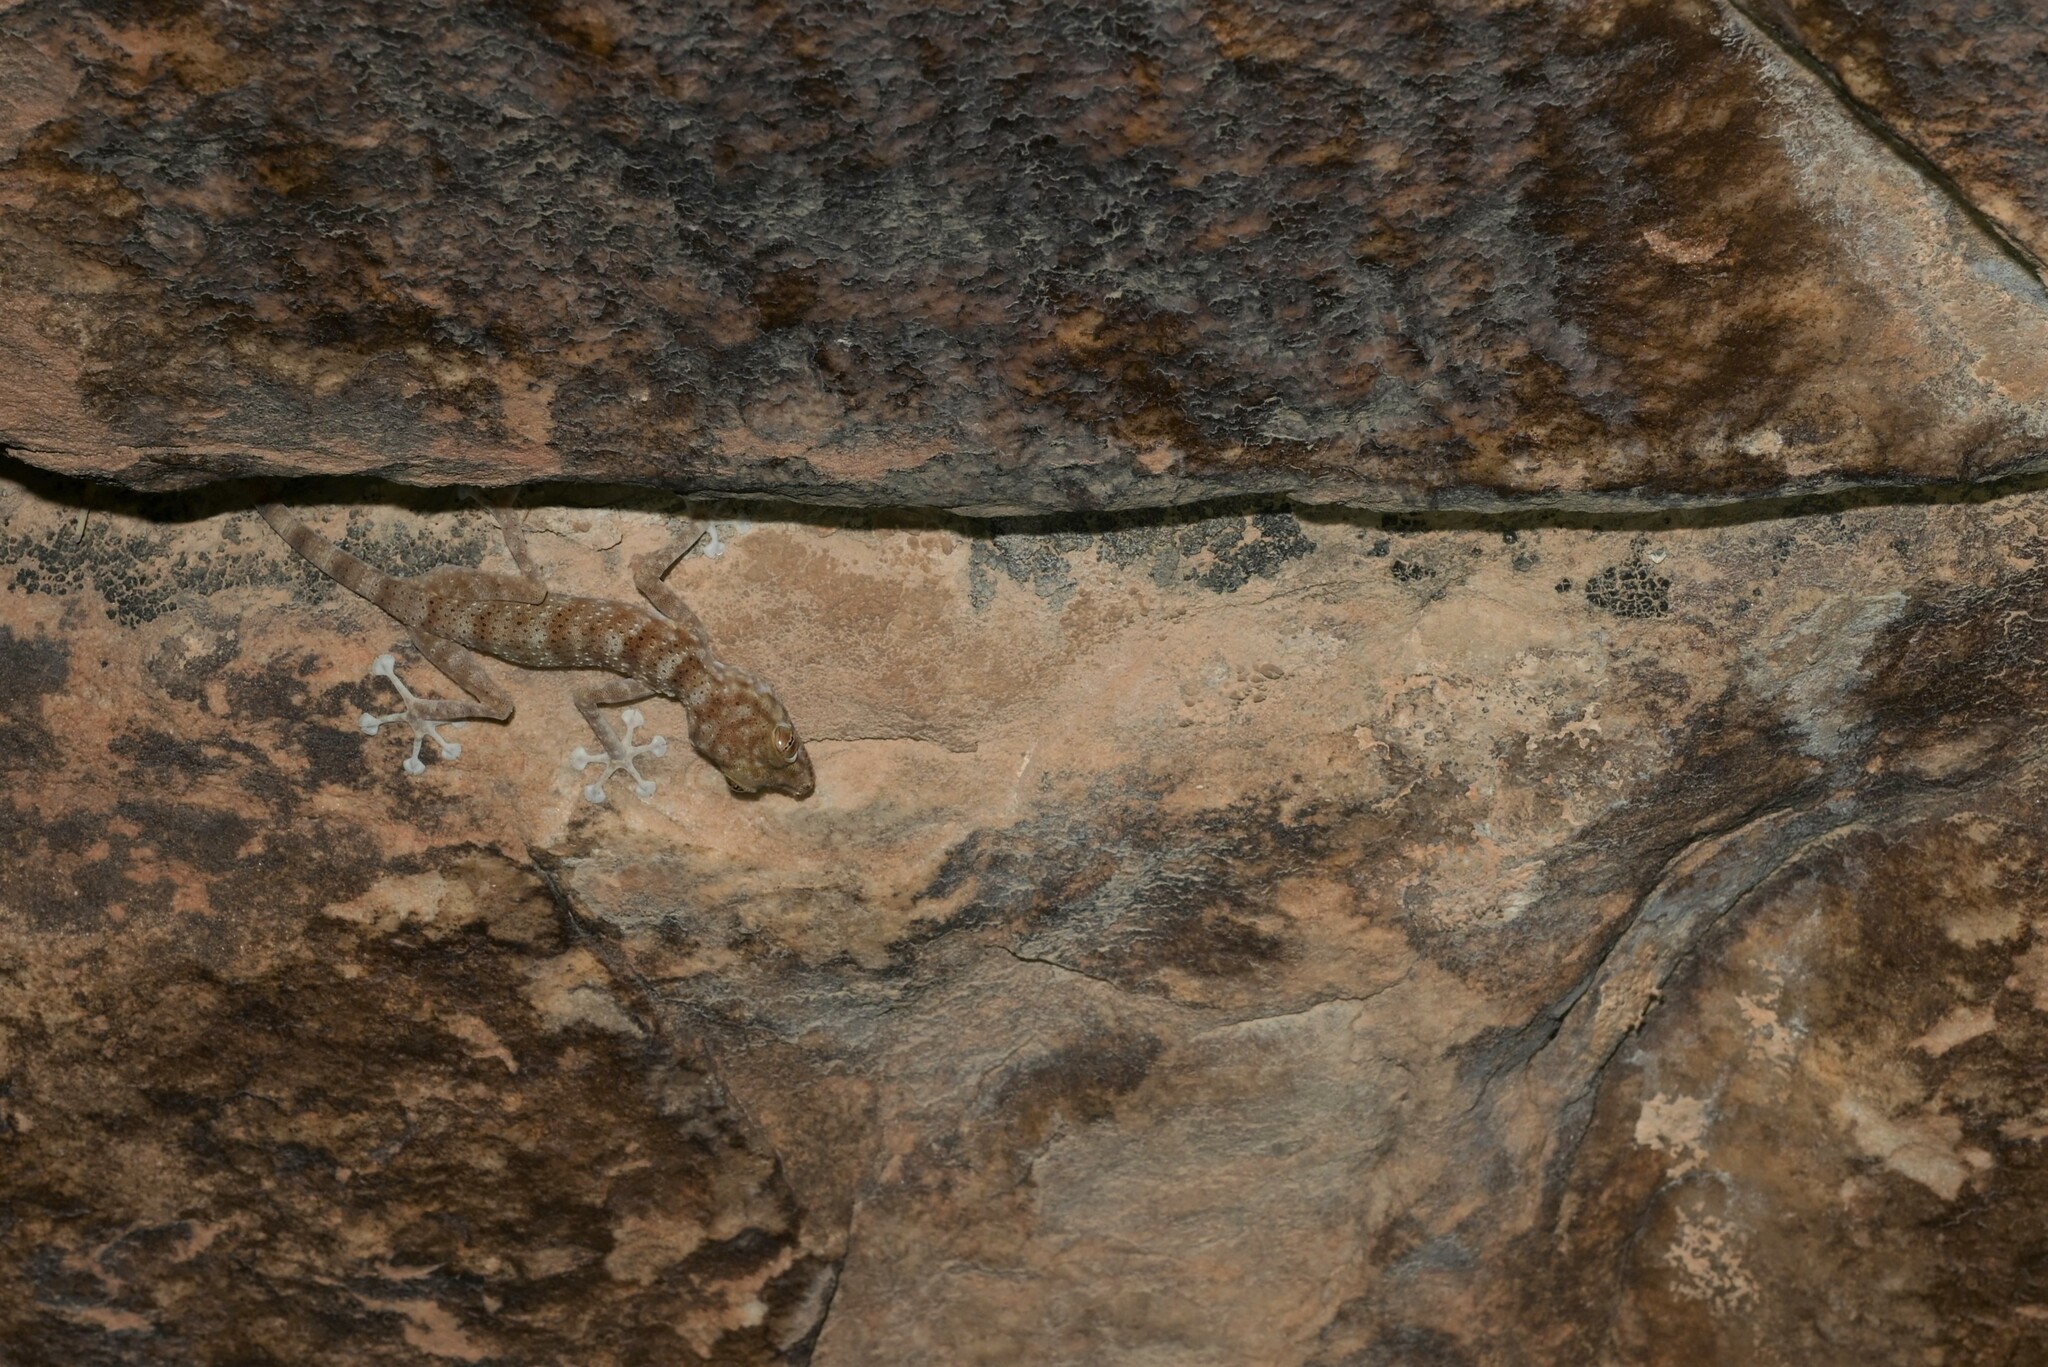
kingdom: Animalia
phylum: Chordata
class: Squamata
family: Phyllodactylidae
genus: Ptyodactylus
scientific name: Ptyodactylus hasselquistii
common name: Hasselquist’s fan-footed gecko
